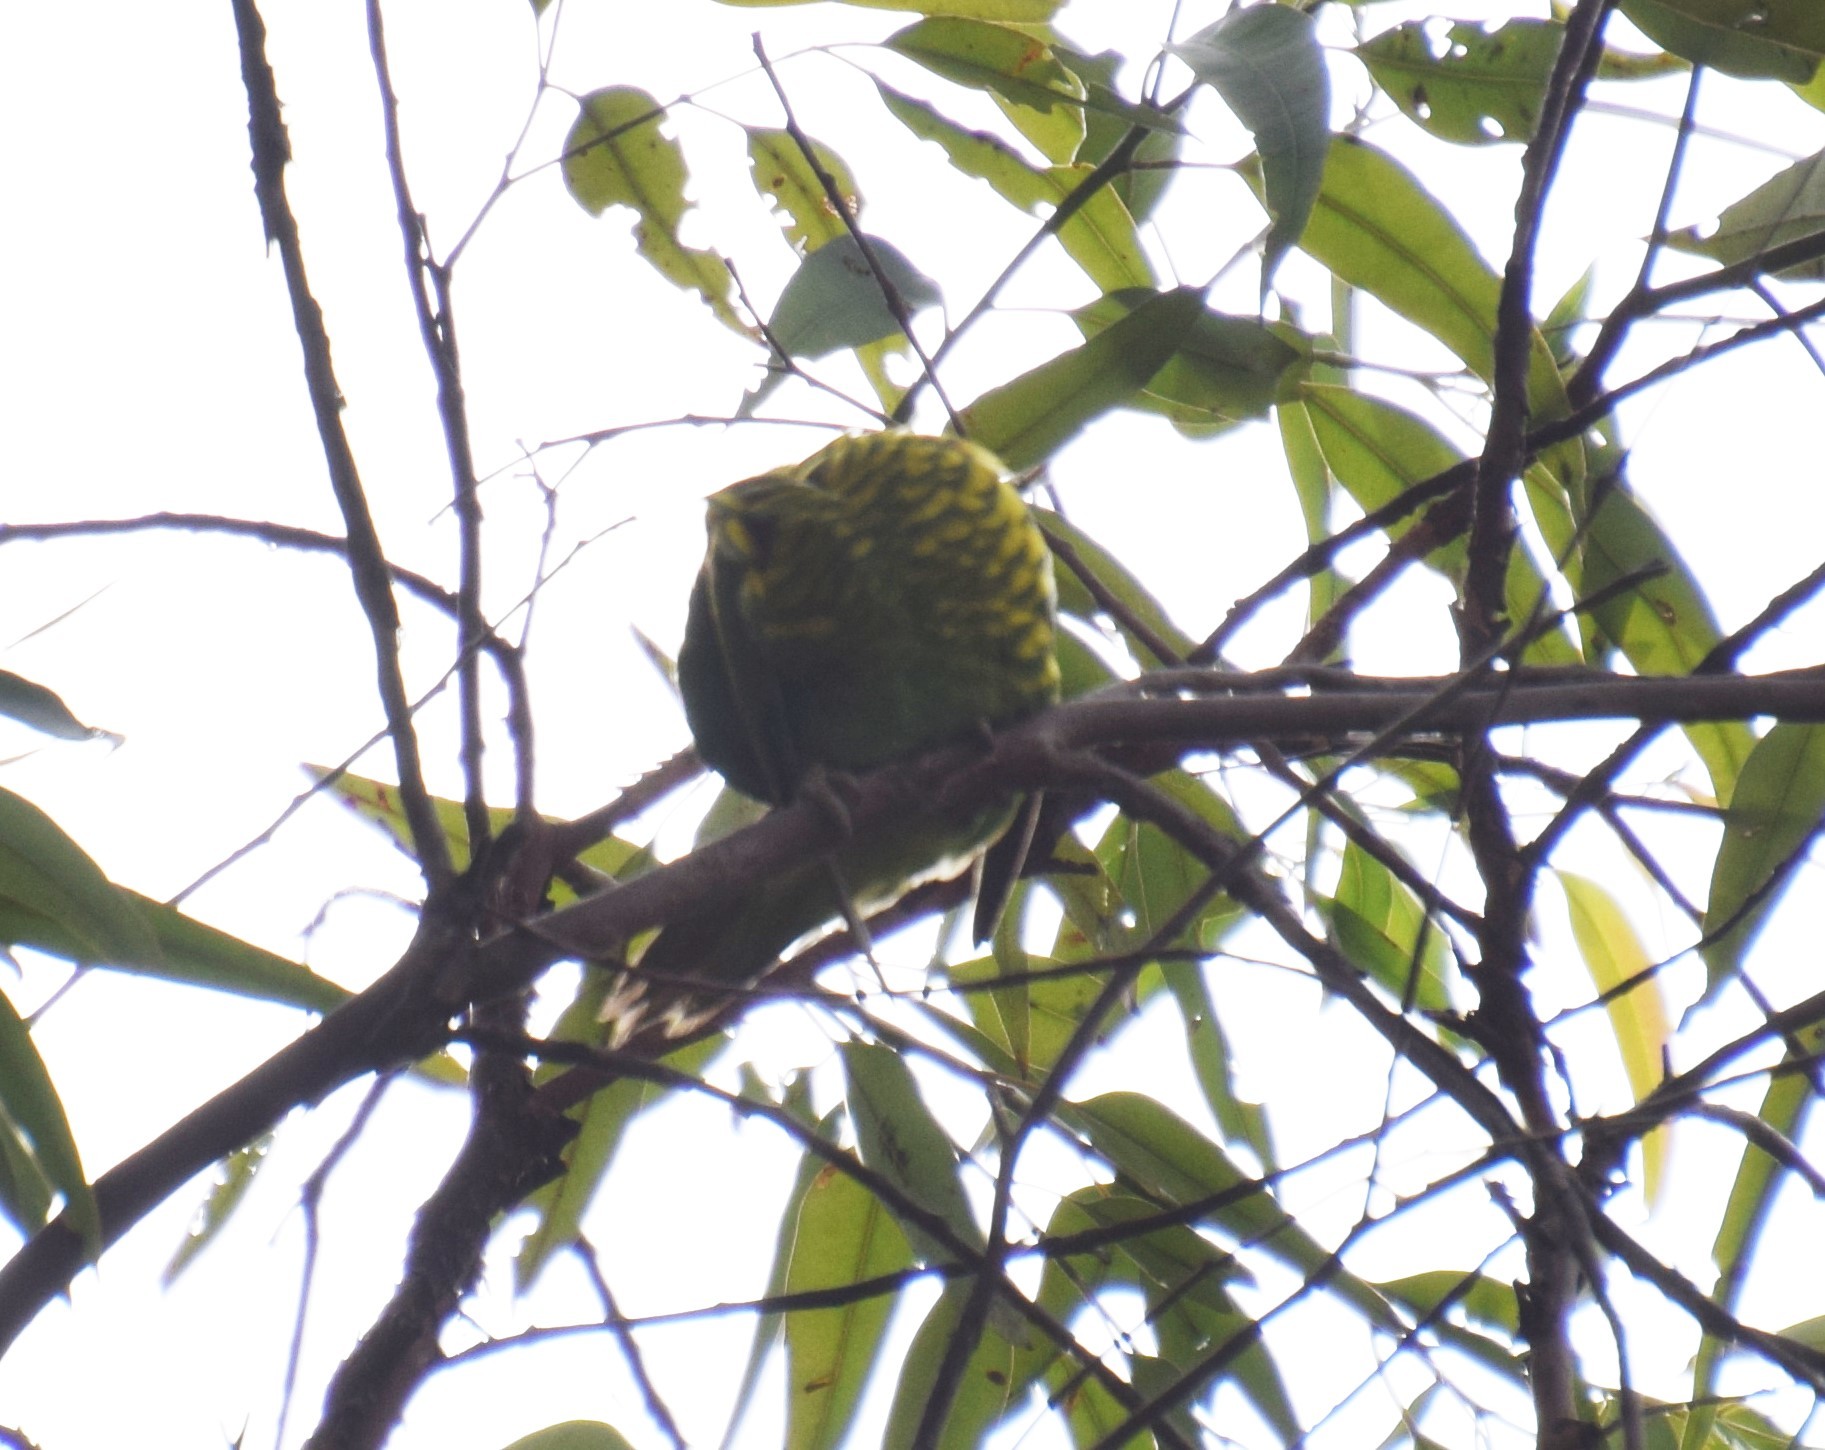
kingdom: Animalia
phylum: Chordata
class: Aves
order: Psittaciformes
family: Psittacidae
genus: Trichoglossus
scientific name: Trichoglossus chlorolepidotus
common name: Scaly-breasted lorikeet
